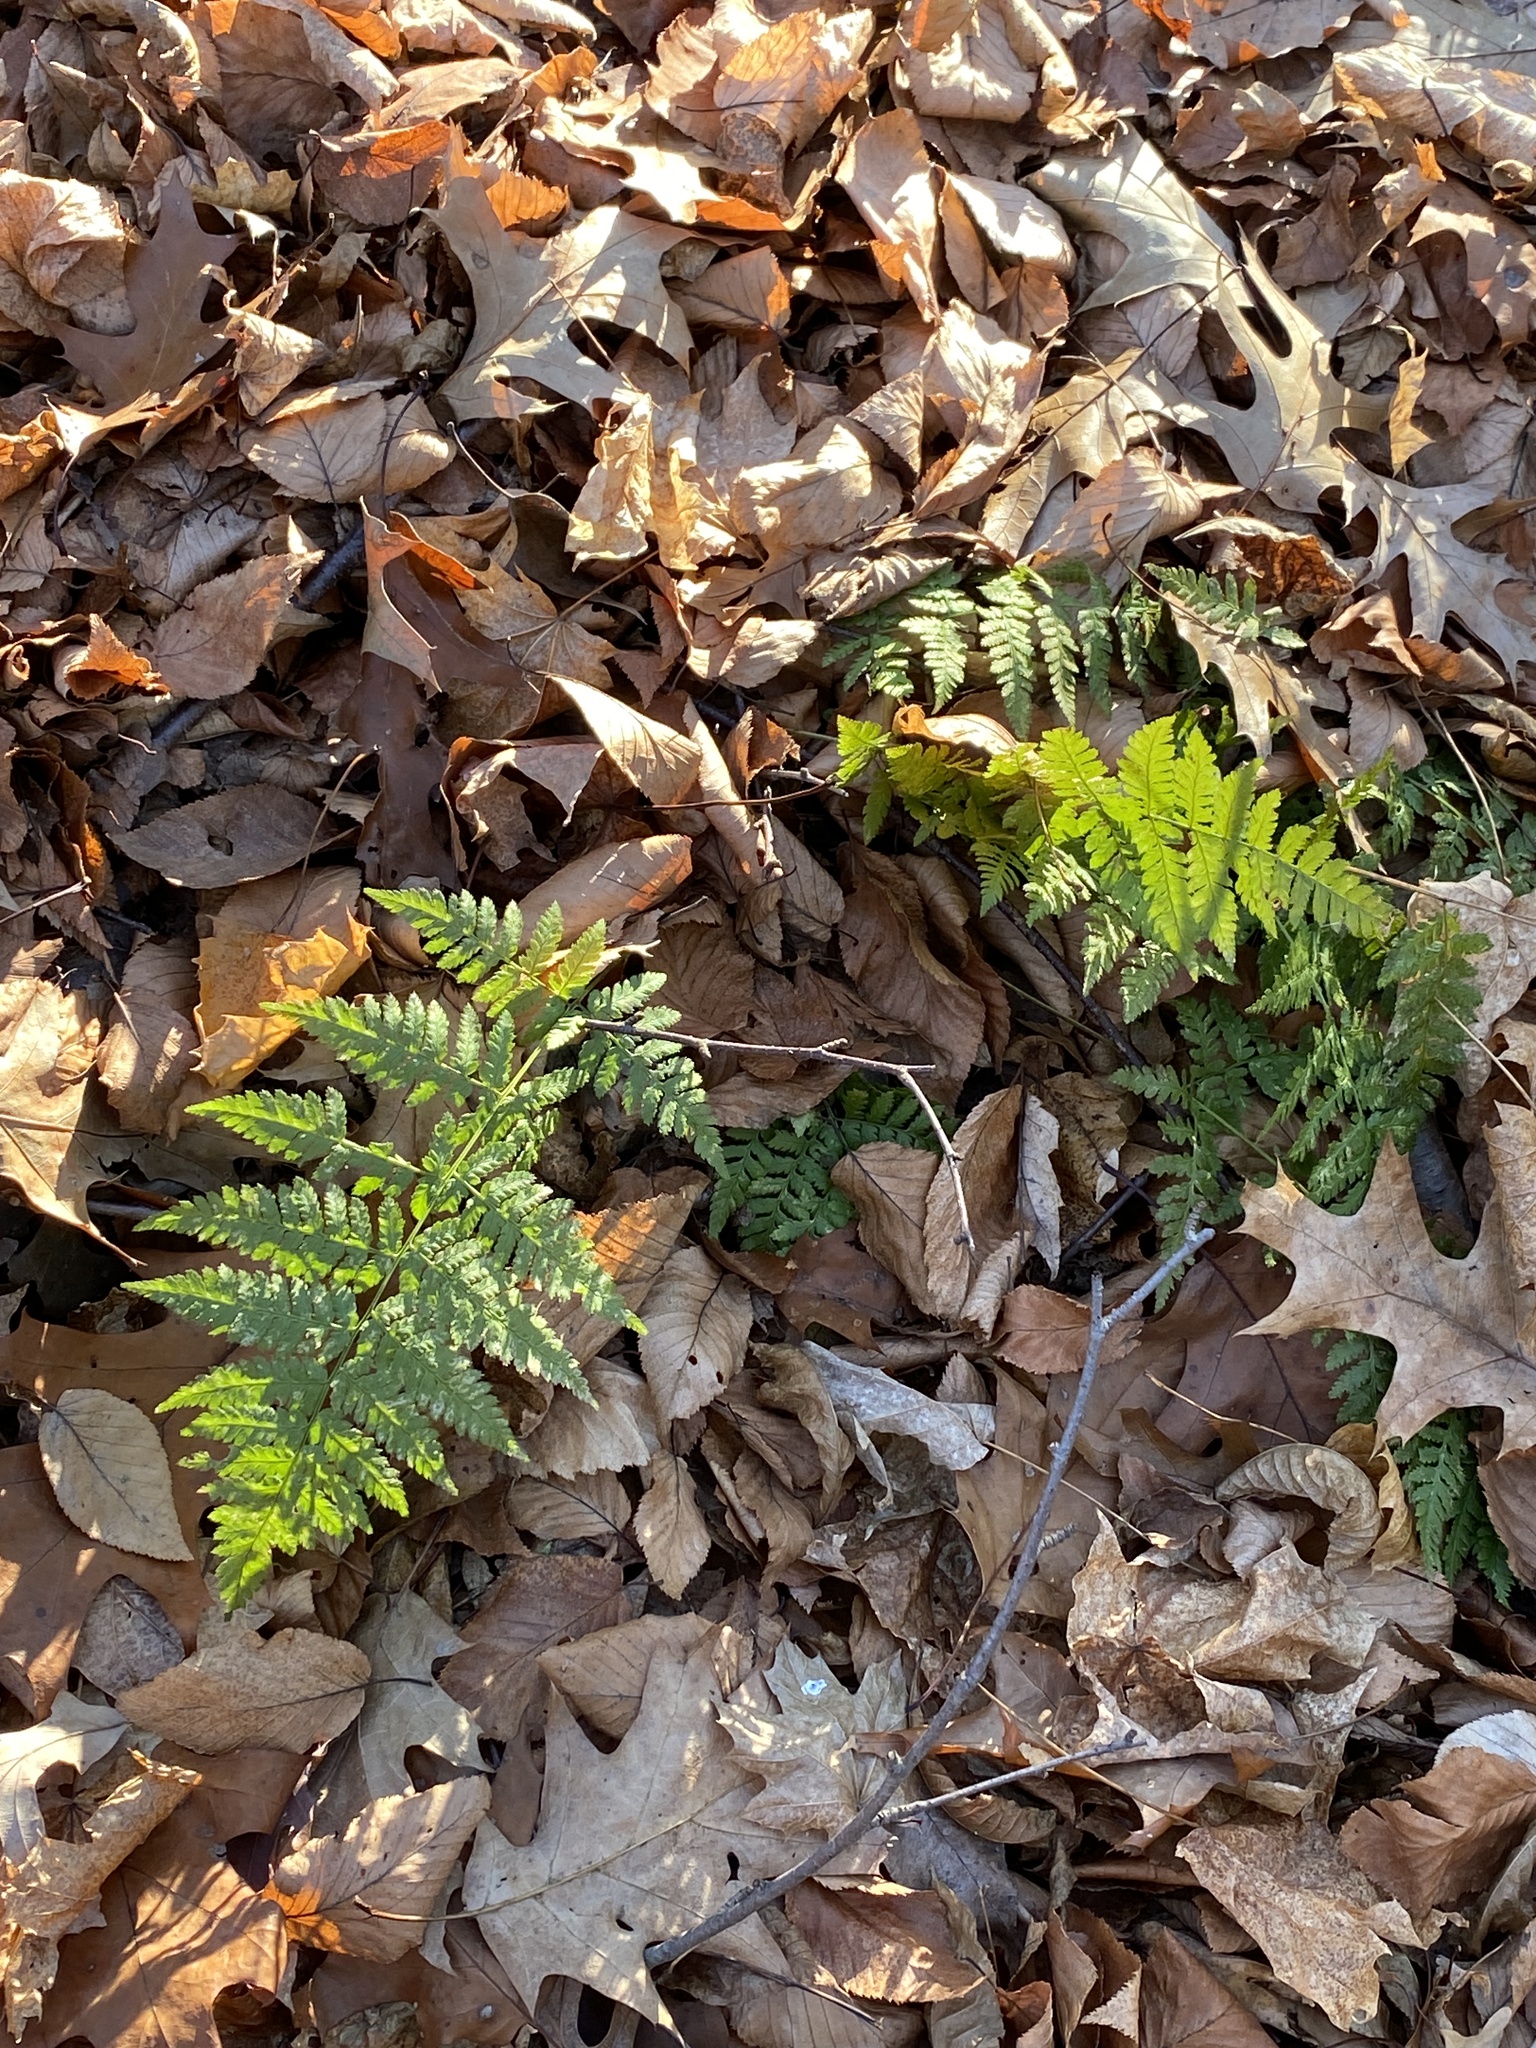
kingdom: Plantae
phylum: Tracheophyta
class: Polypodiopsida
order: Polypodiales
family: Dryopteridaceae
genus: Dryopteris
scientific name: Dryopteris intermedia
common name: Evergreen wood fern
